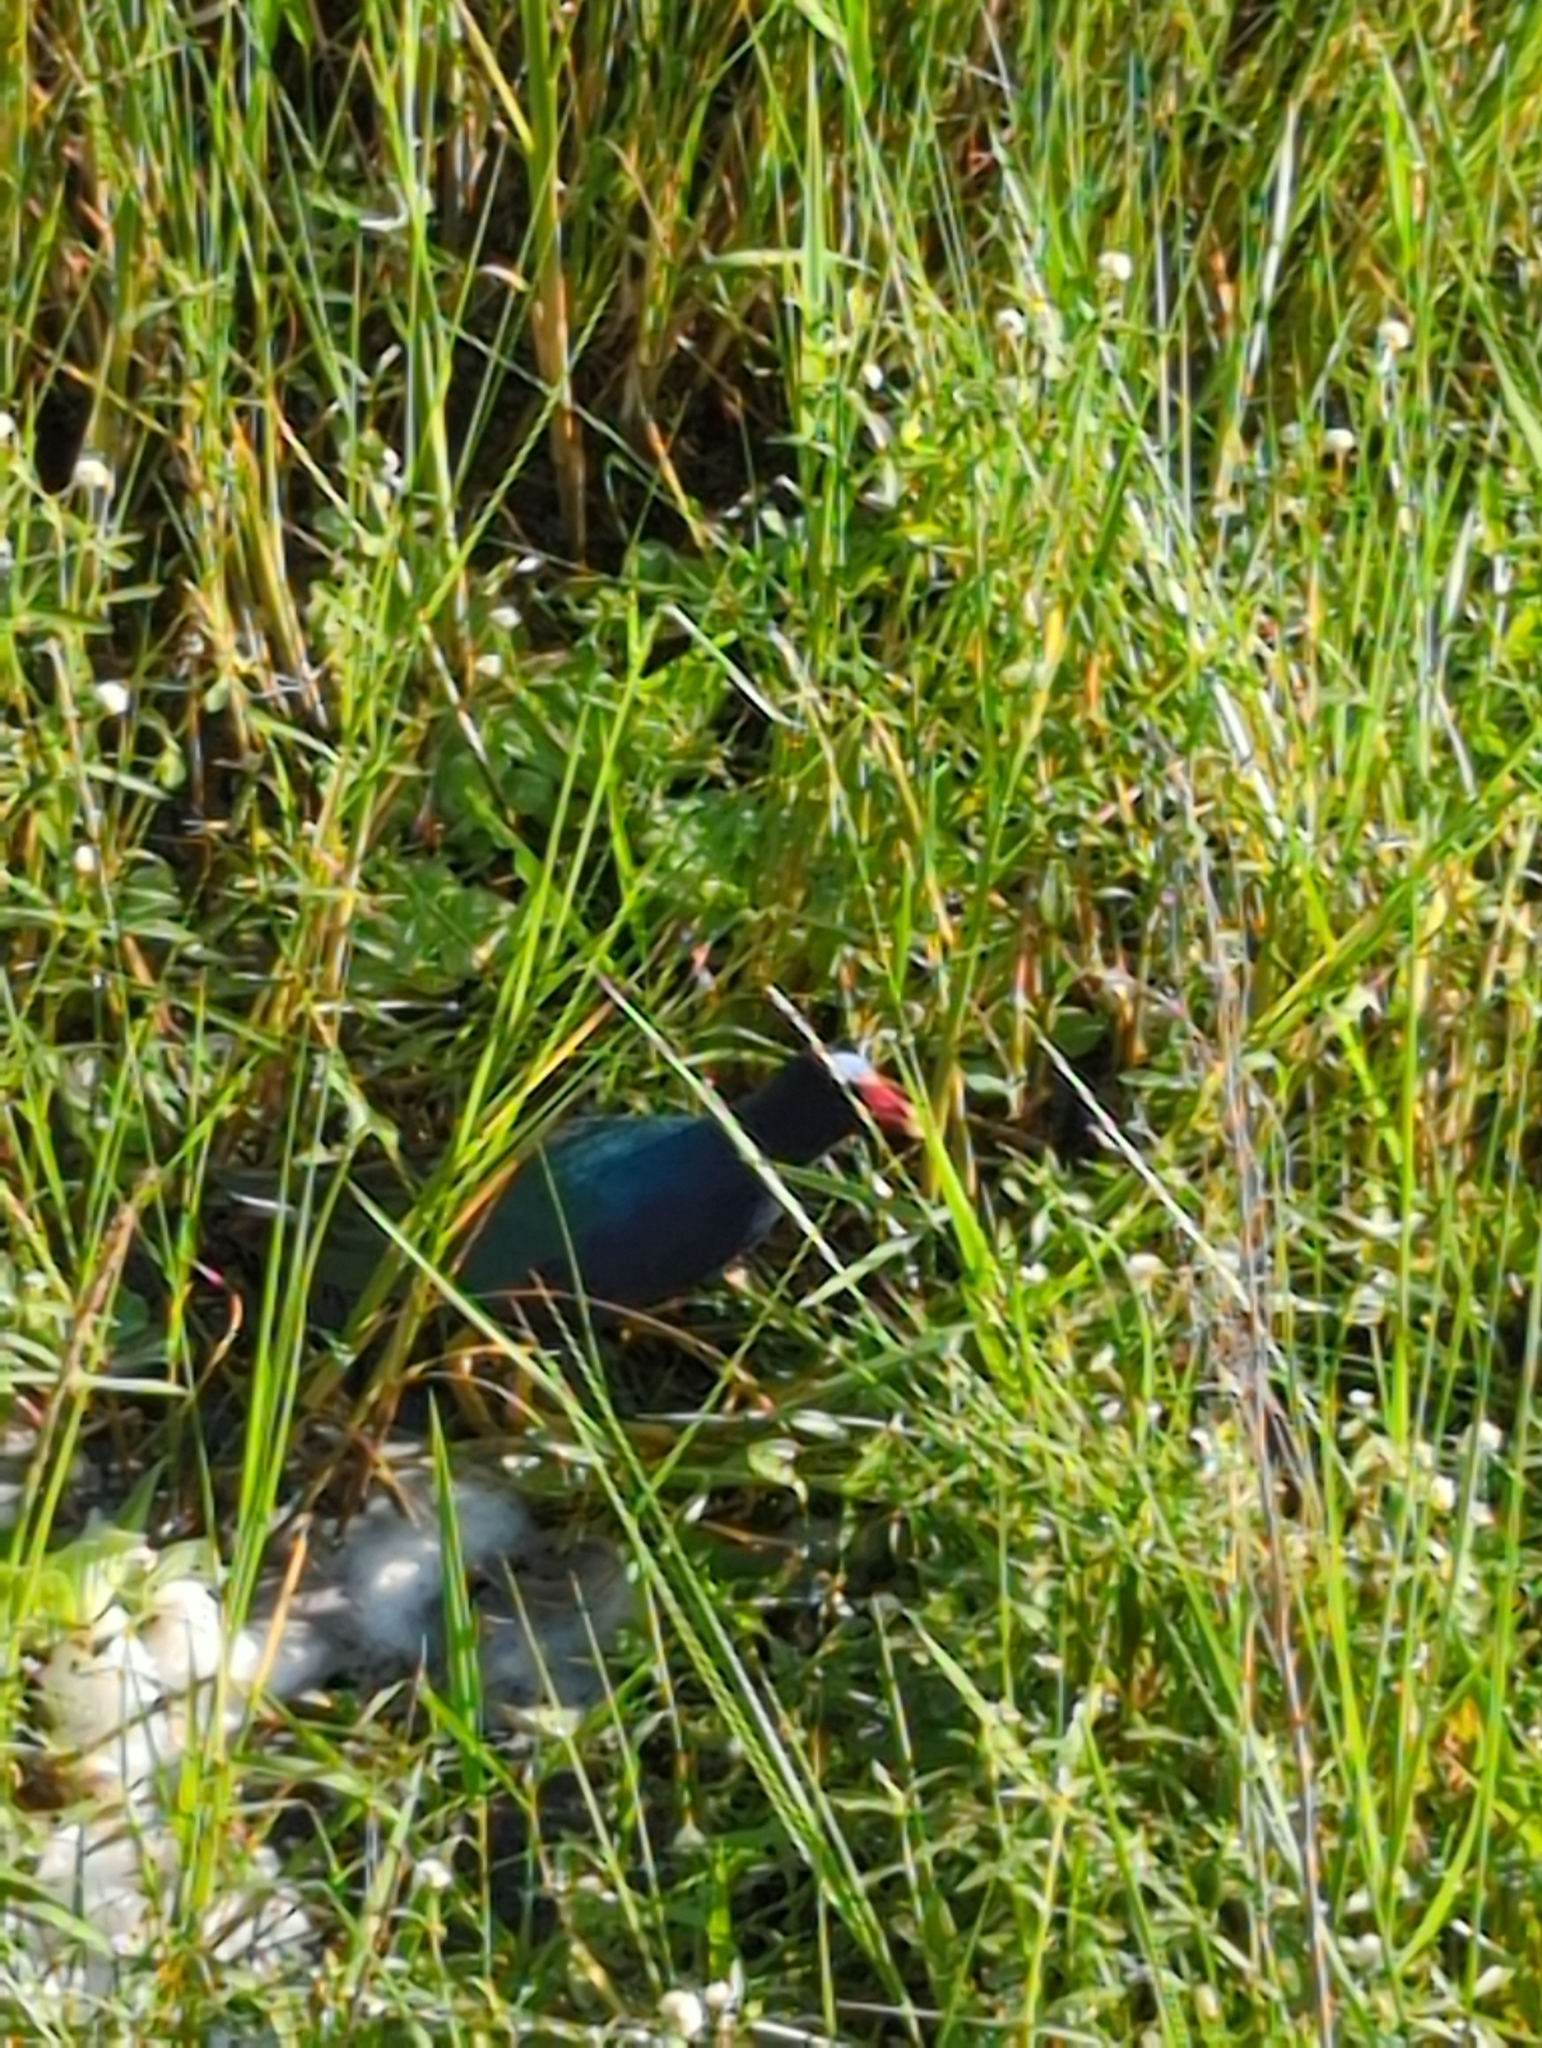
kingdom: Animalia
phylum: Chordata
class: Aves
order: Gruiformes
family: Rallidae
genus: Porphyrio
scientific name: Porphyrio martinica
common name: Purple gallinule
